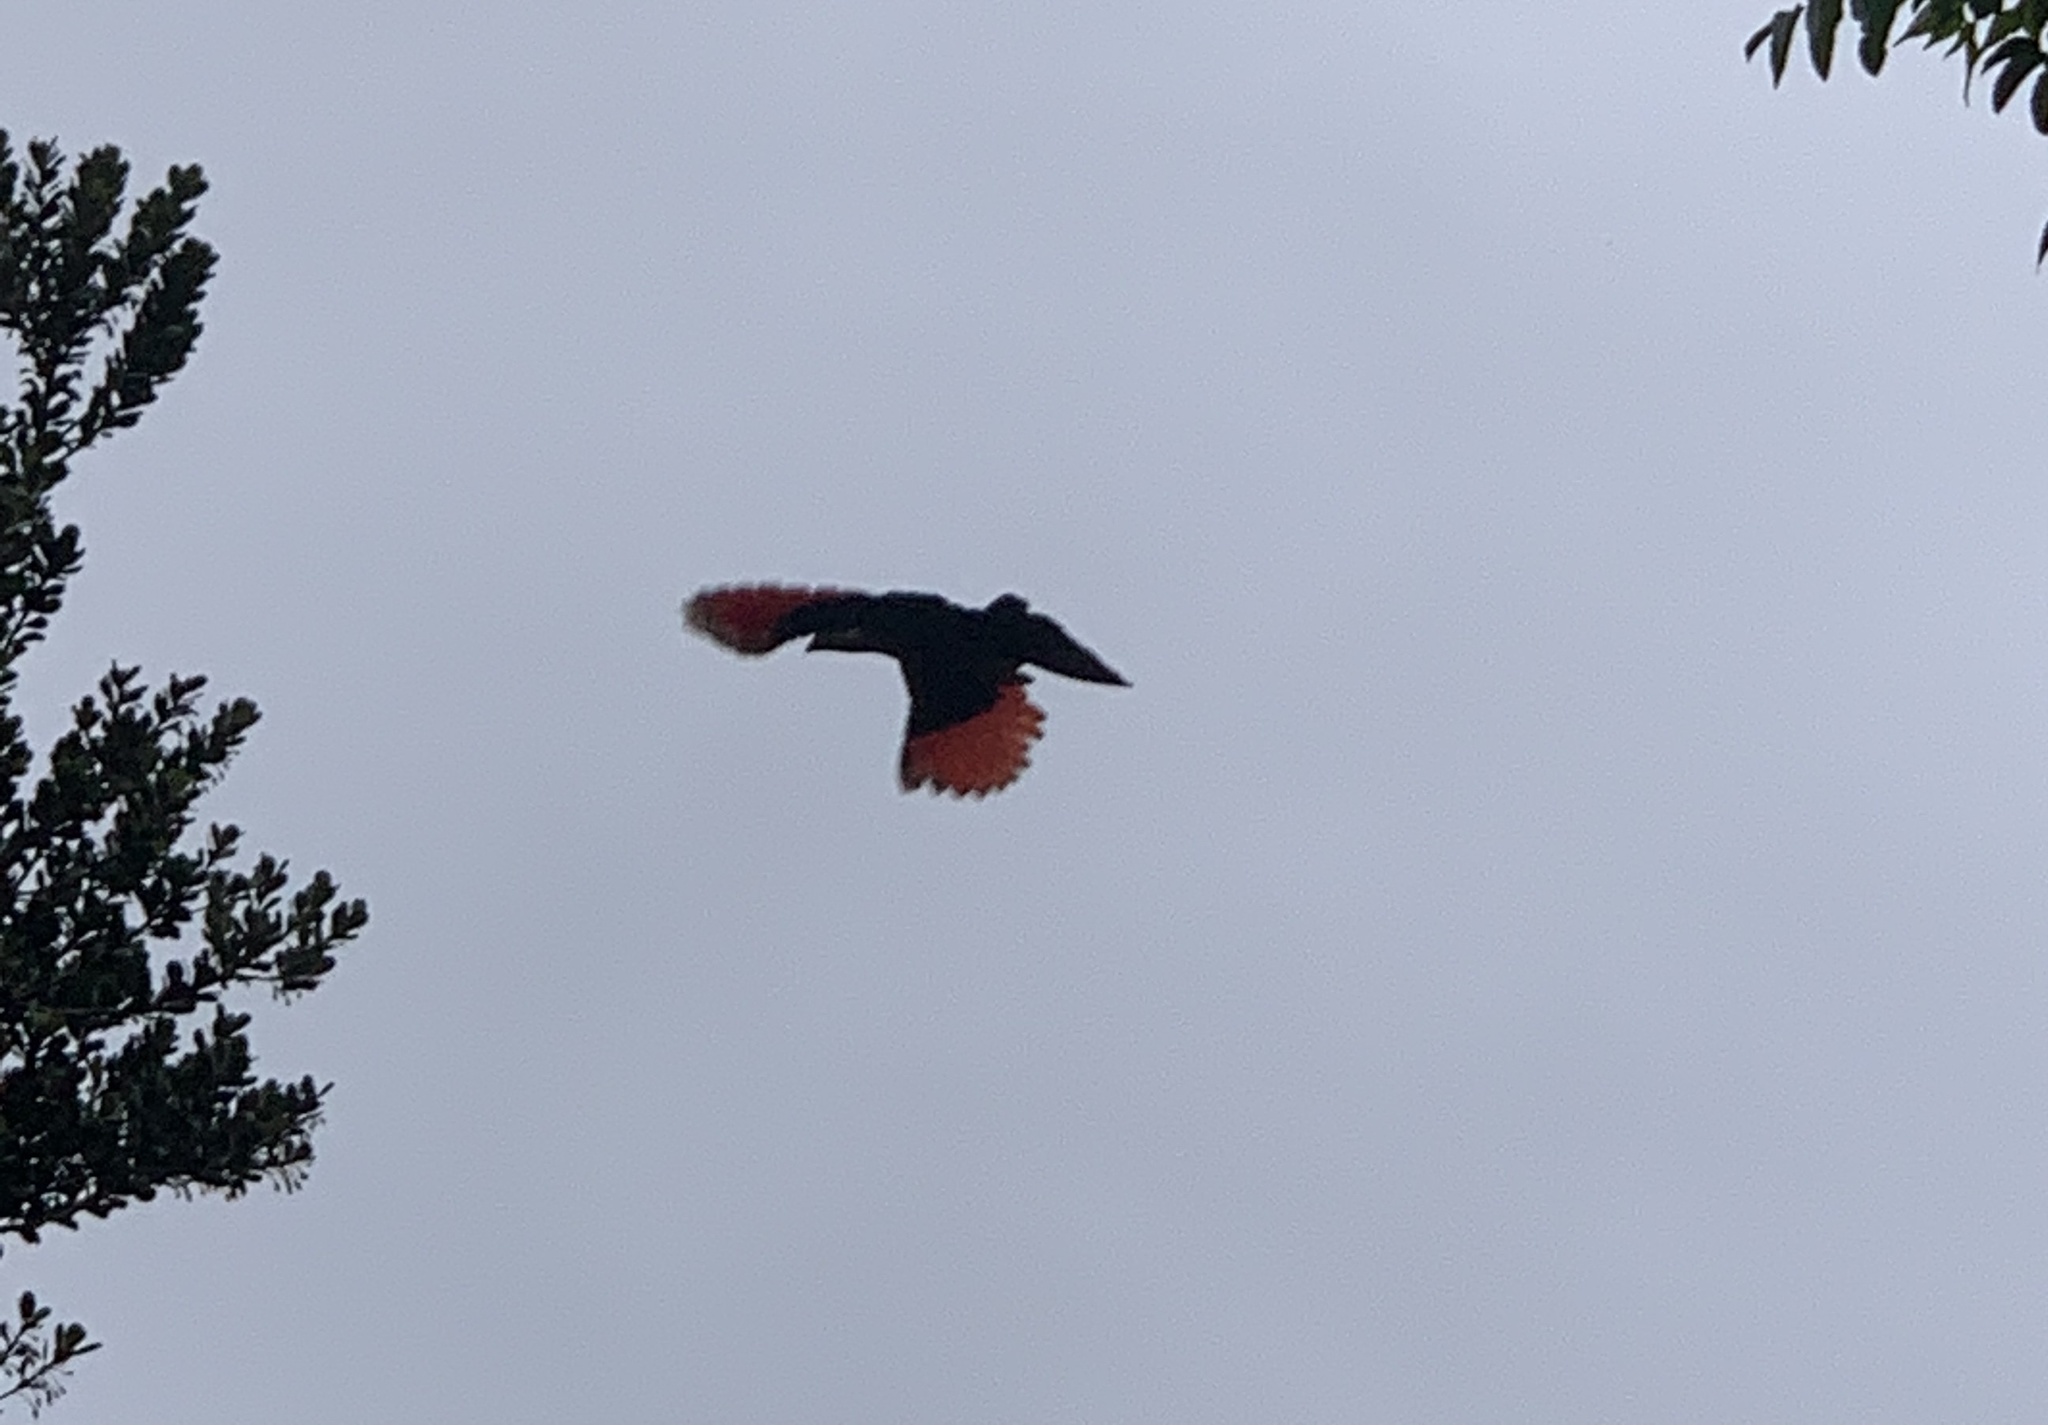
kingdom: Animalia
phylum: Chordata
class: Aves
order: Musophagiformes
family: Musophagidae
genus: Tauraco
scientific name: Tauraco porphyreolophus
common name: Purple-crested turaco
